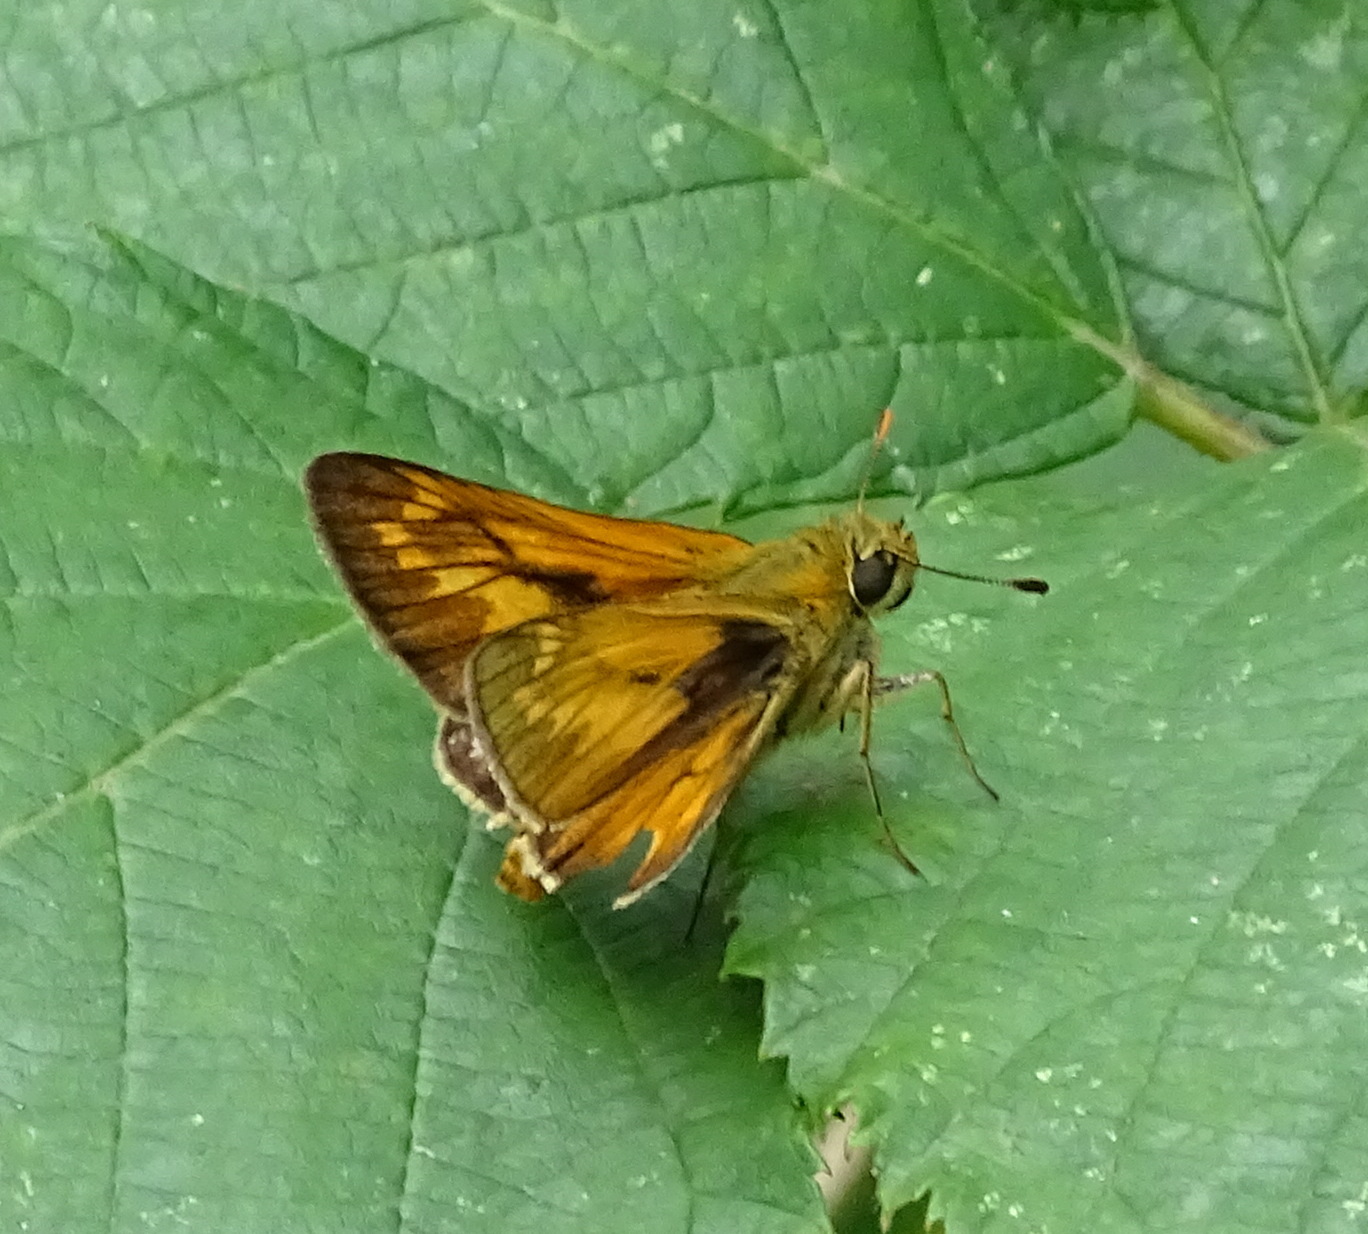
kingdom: Animalia
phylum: Arthropoda
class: Insecta
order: Lepidoptera
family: Hesperiidae
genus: Ochlodes
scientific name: Ochlodes venata
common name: Large skipper
